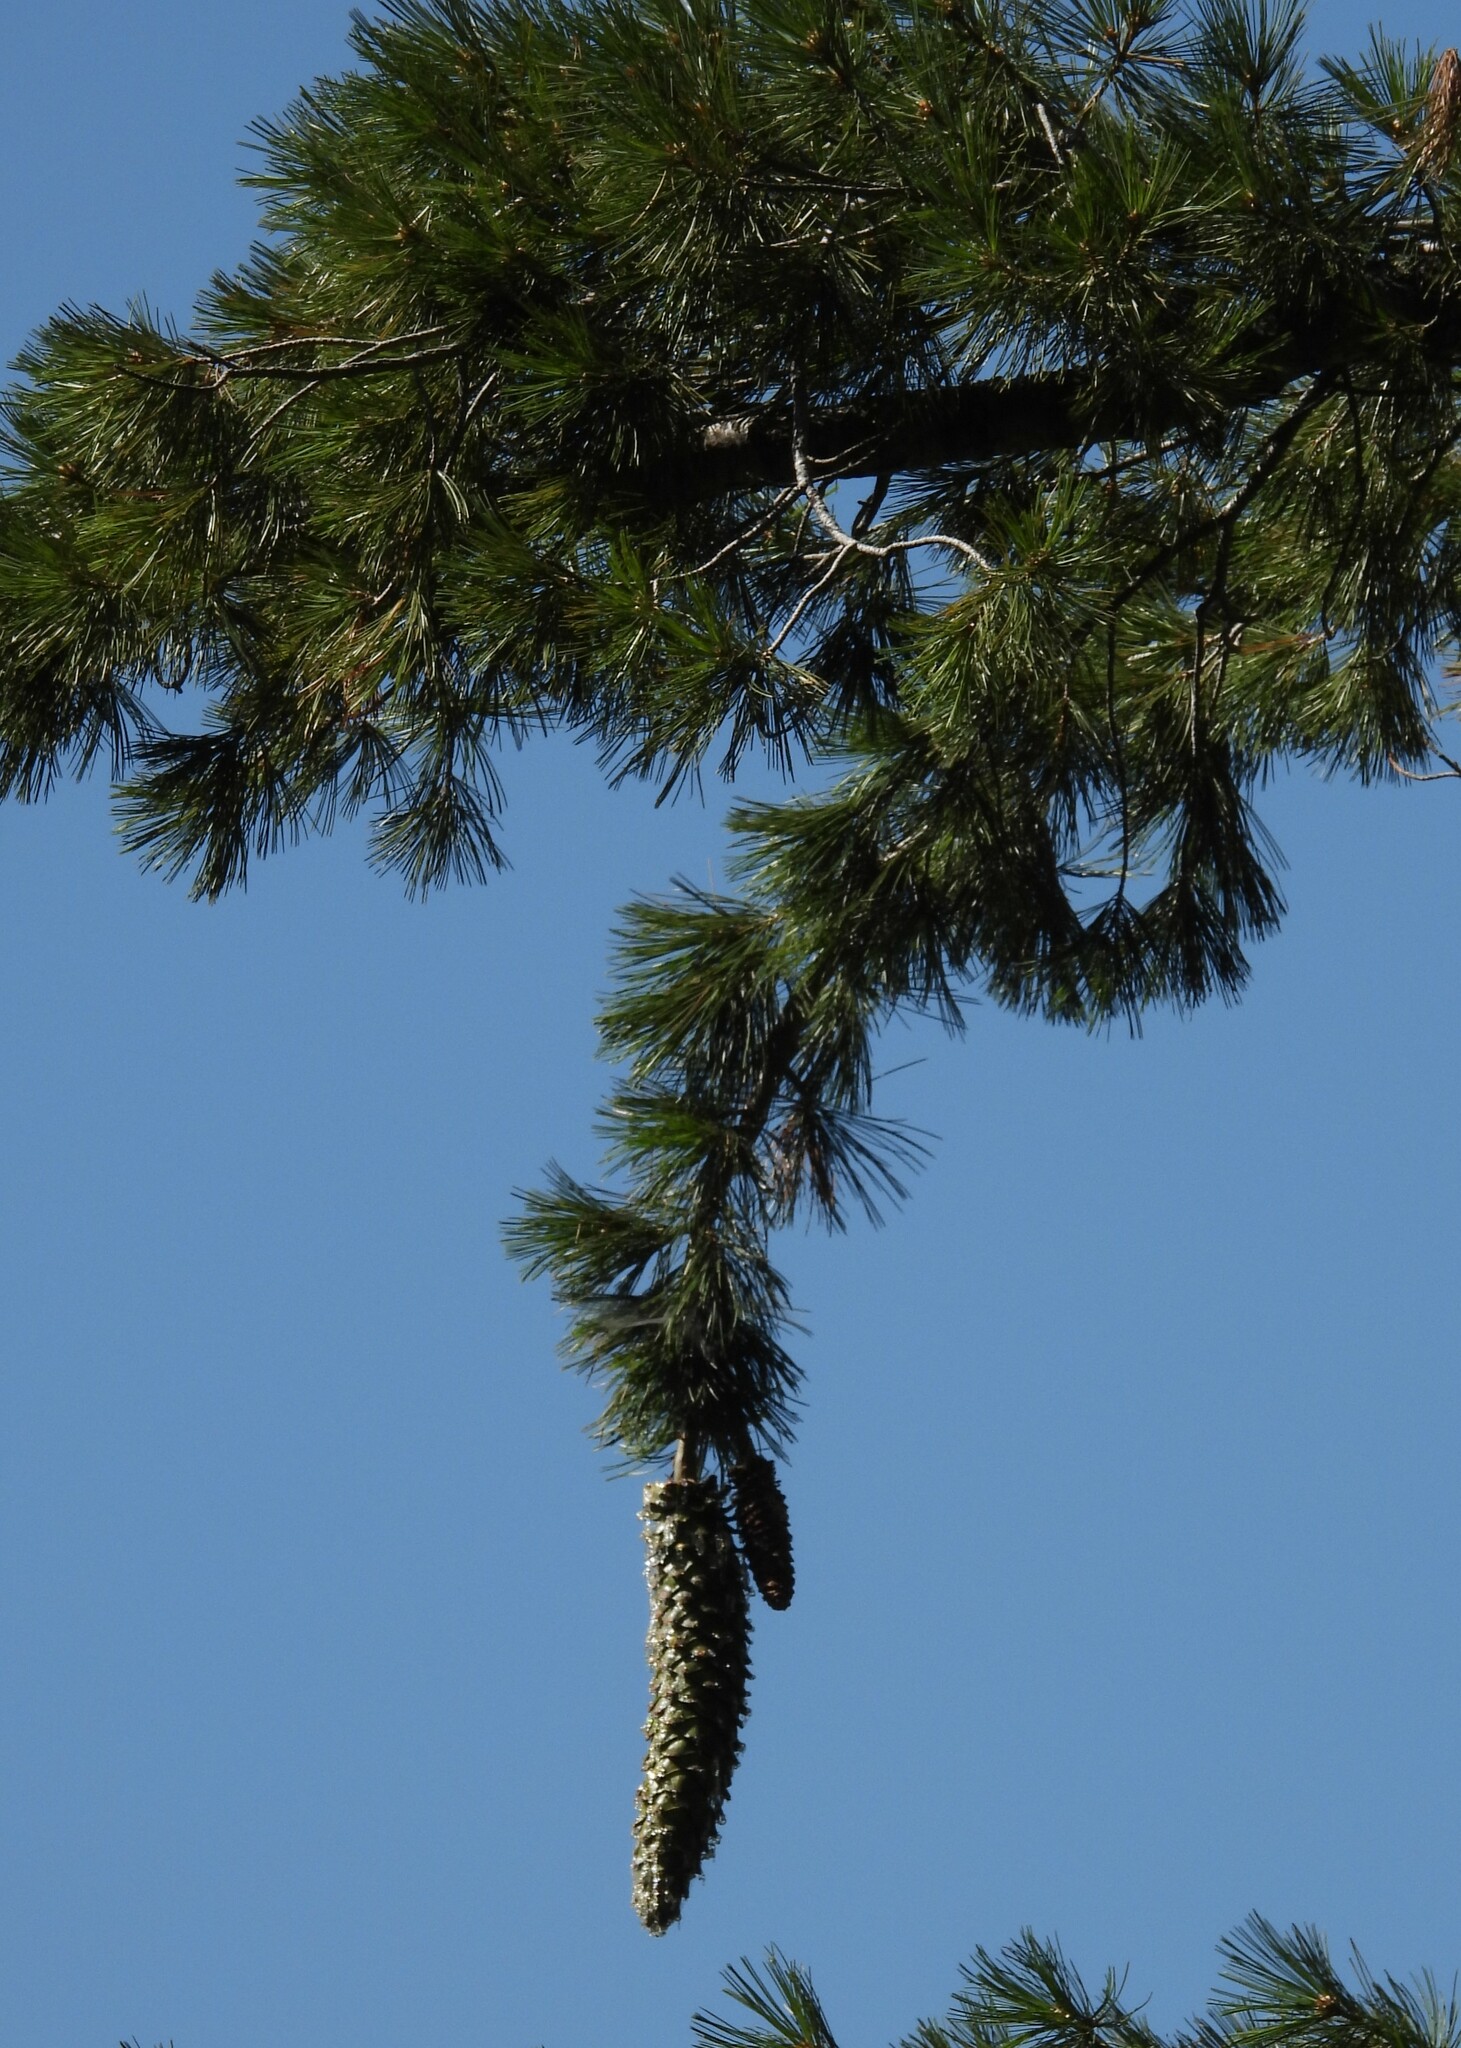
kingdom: Plantae
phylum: Tracheophyta
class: Pinopsida
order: Pinales
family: Pinaceae
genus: Pinus
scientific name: Pinus lambertiana
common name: Sugar pine
